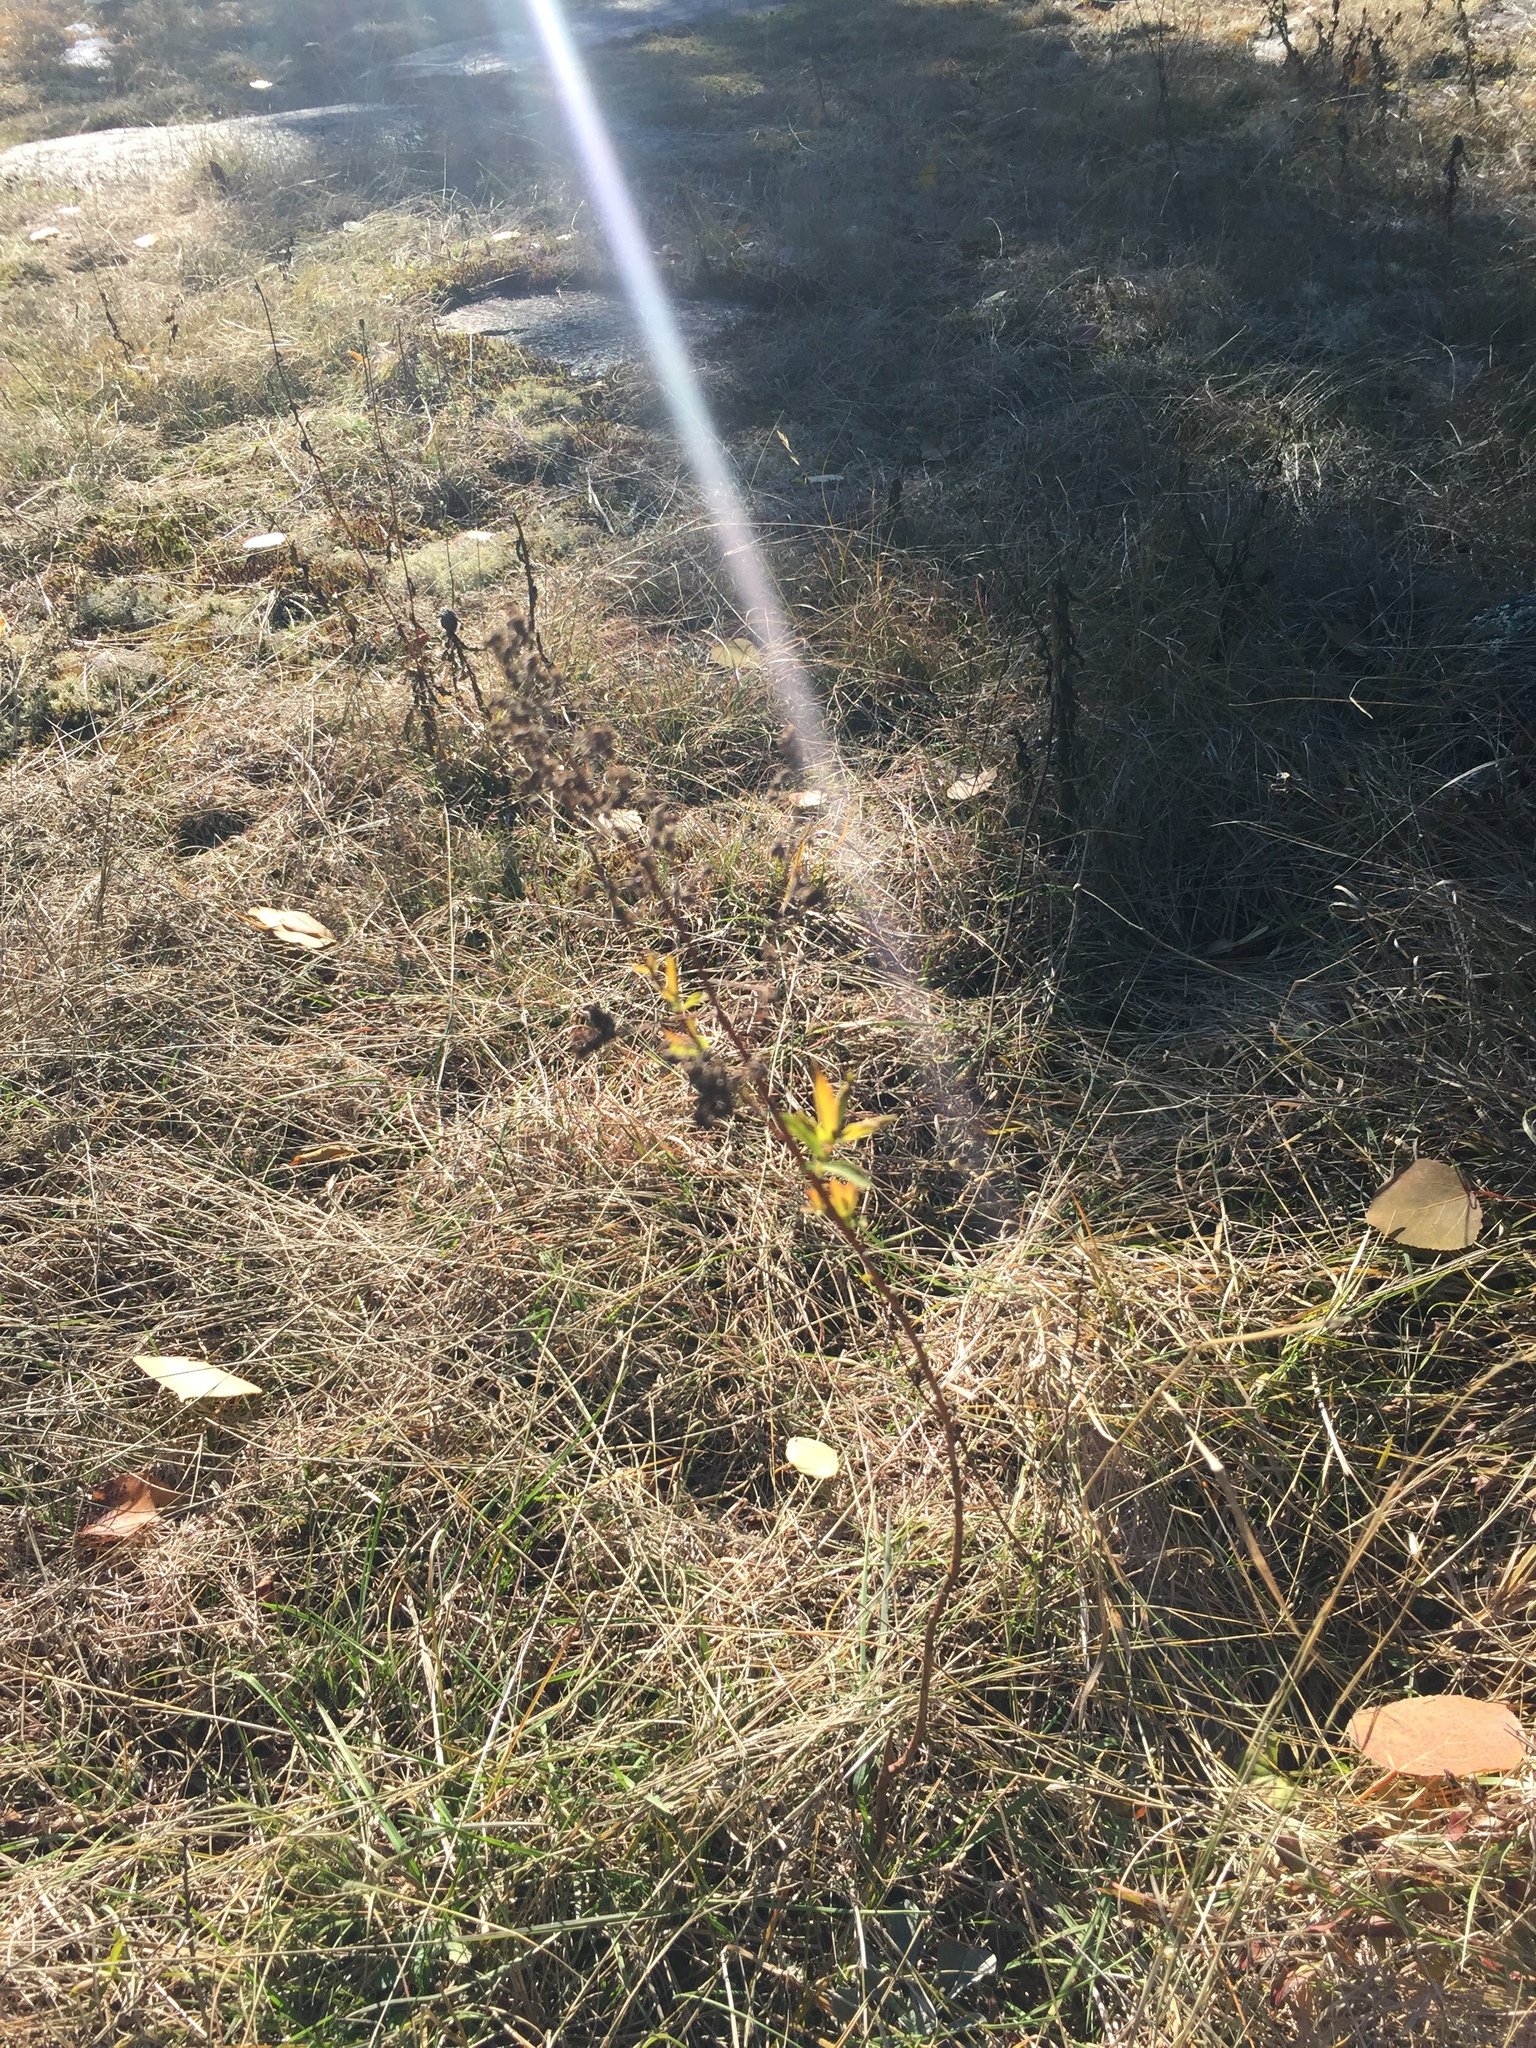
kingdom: Plantae
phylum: Tracheophyta
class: Magnoliopsida
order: Rosales
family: Rosaceae
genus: Spiraea
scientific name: Spiraea alba
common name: Pale bridewort
